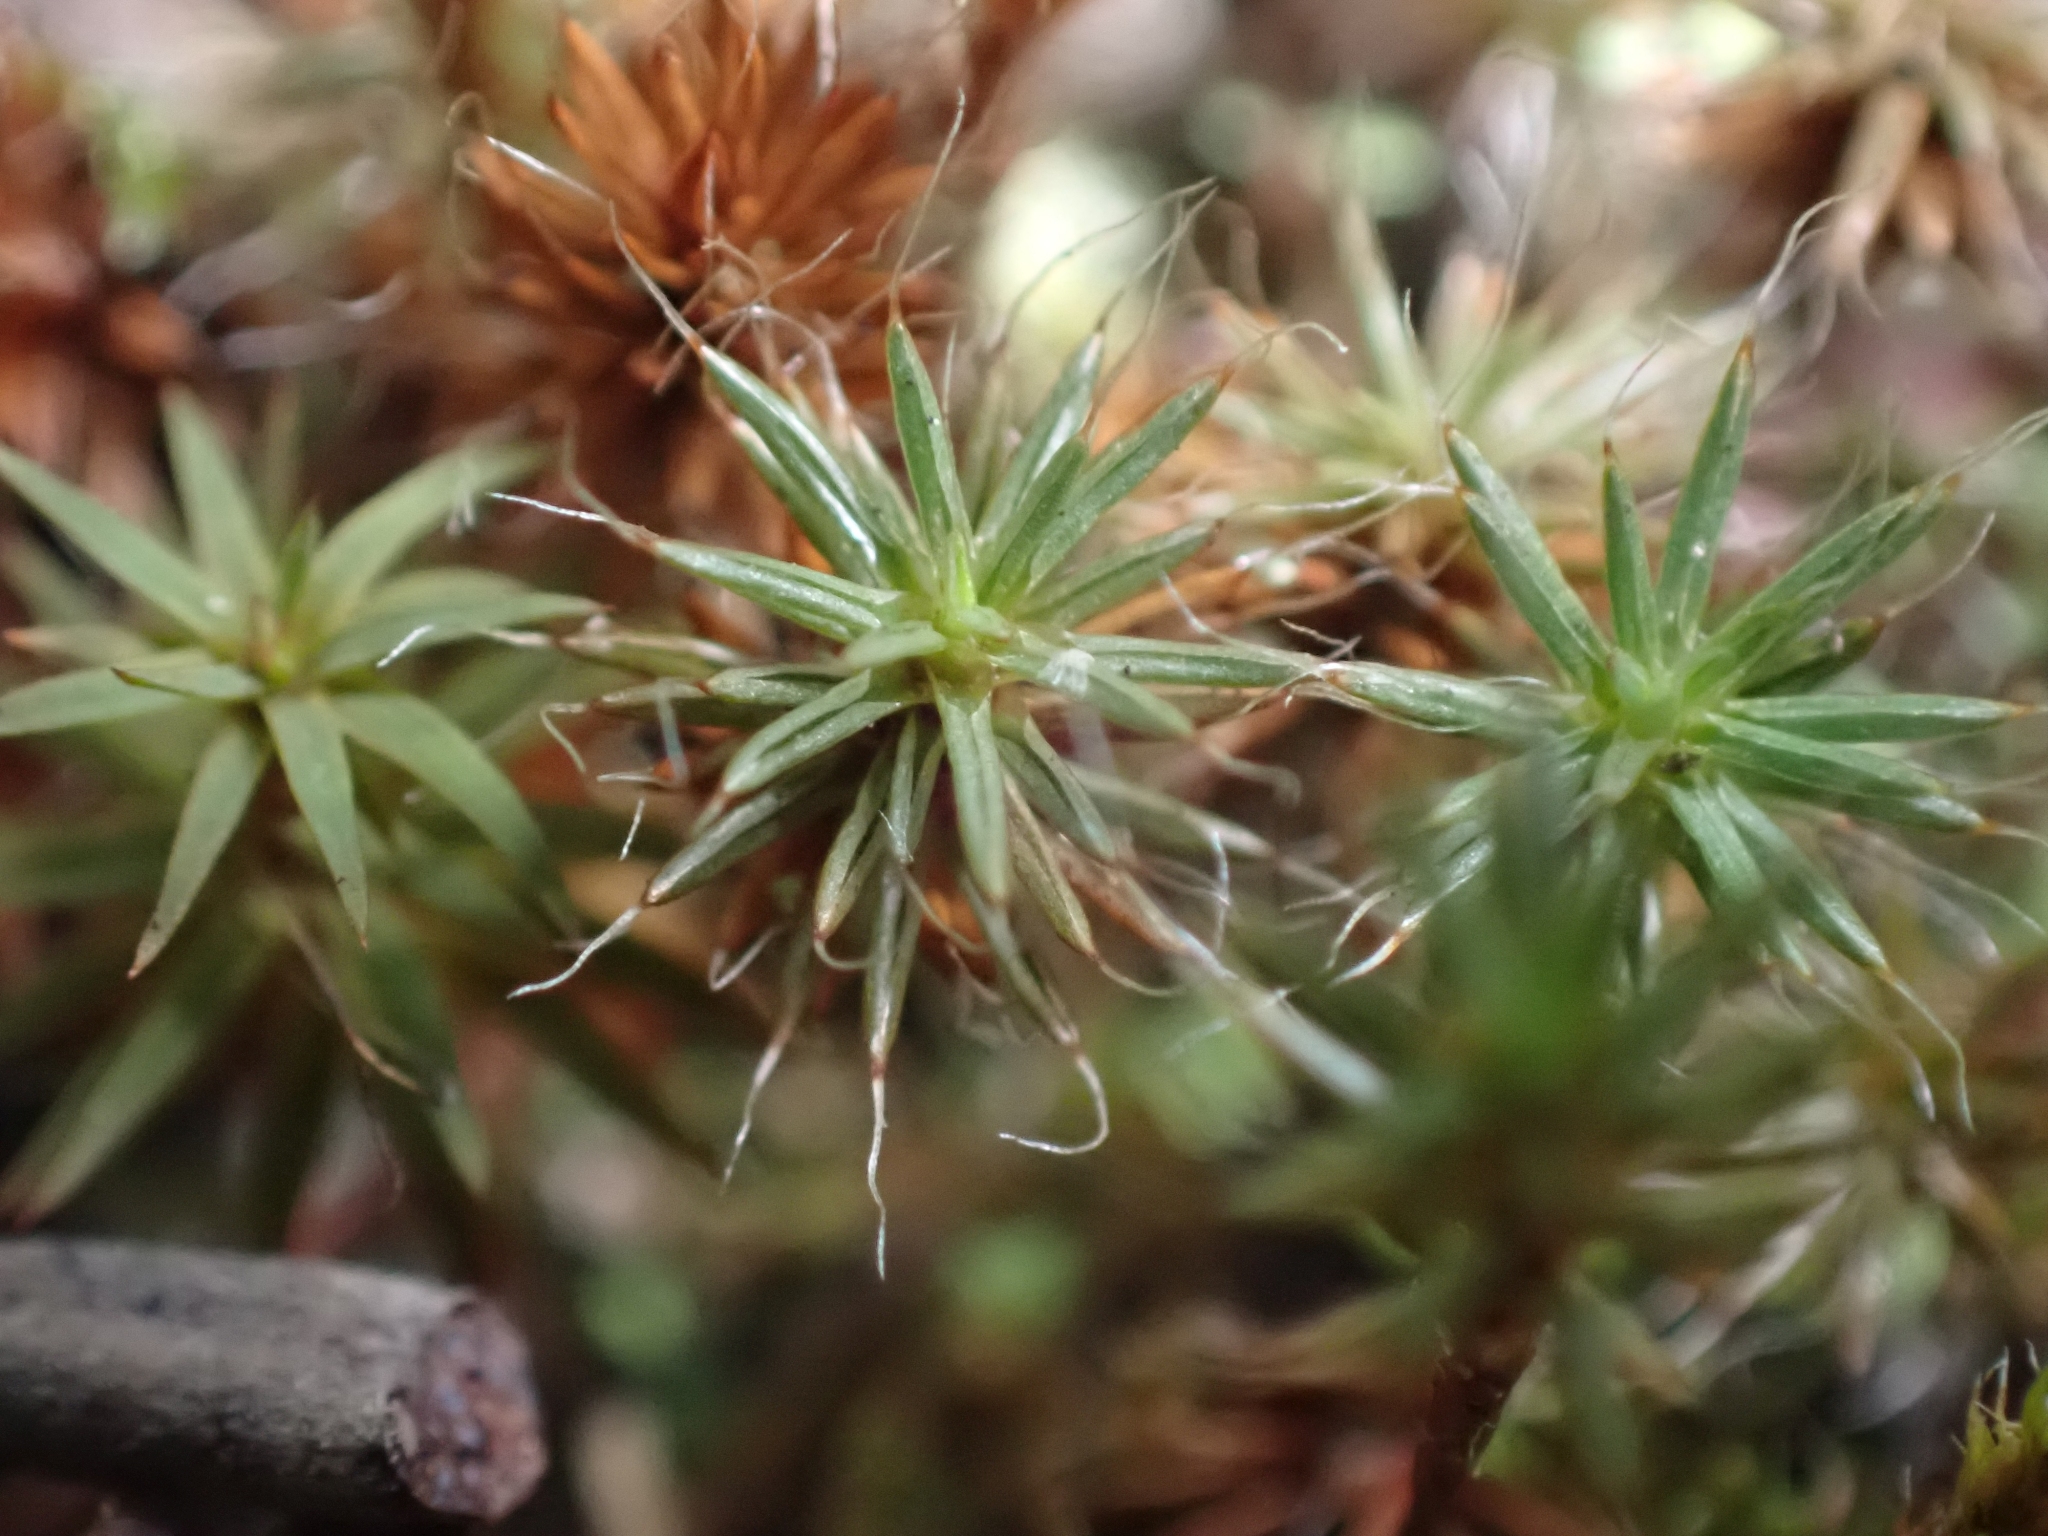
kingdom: Plantae
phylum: Bryophyta
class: Polytrichopsida
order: Polytrichales
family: Polytrichaceae
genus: Polytrichum
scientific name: Polytrichum piliferum
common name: Bristly haircap
